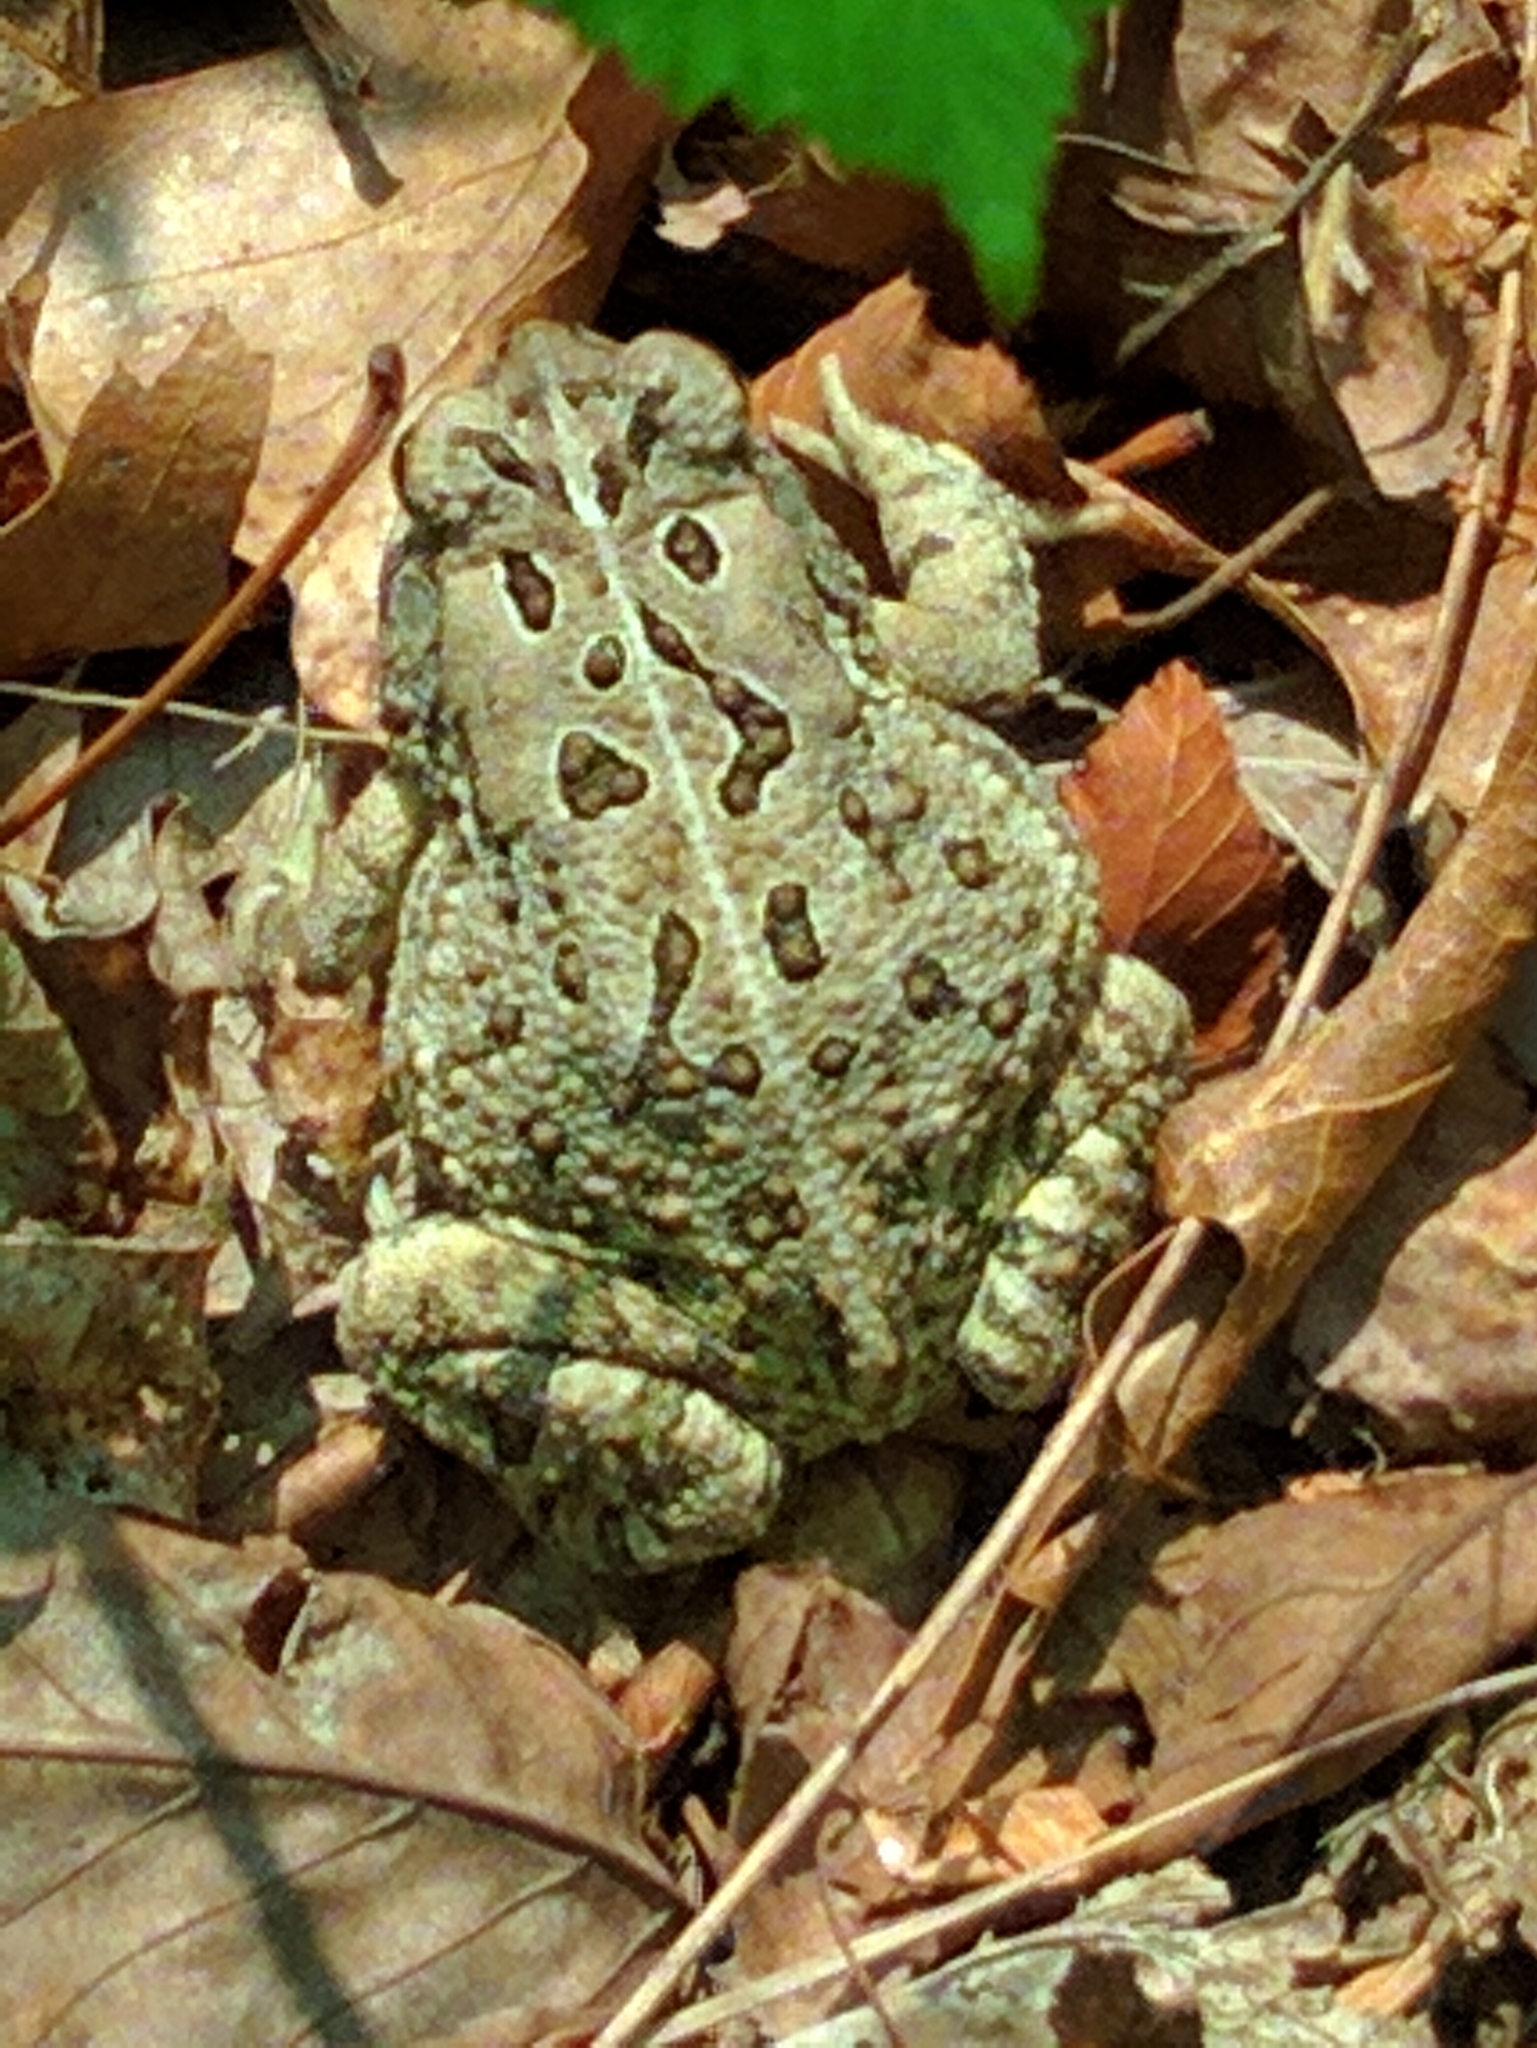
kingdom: Animalia
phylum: Chordata
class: Amphibia
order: Anura
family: Bufonidae
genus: Anaxyrus
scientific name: Anaxyrus fowleri
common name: Fowler's toad
